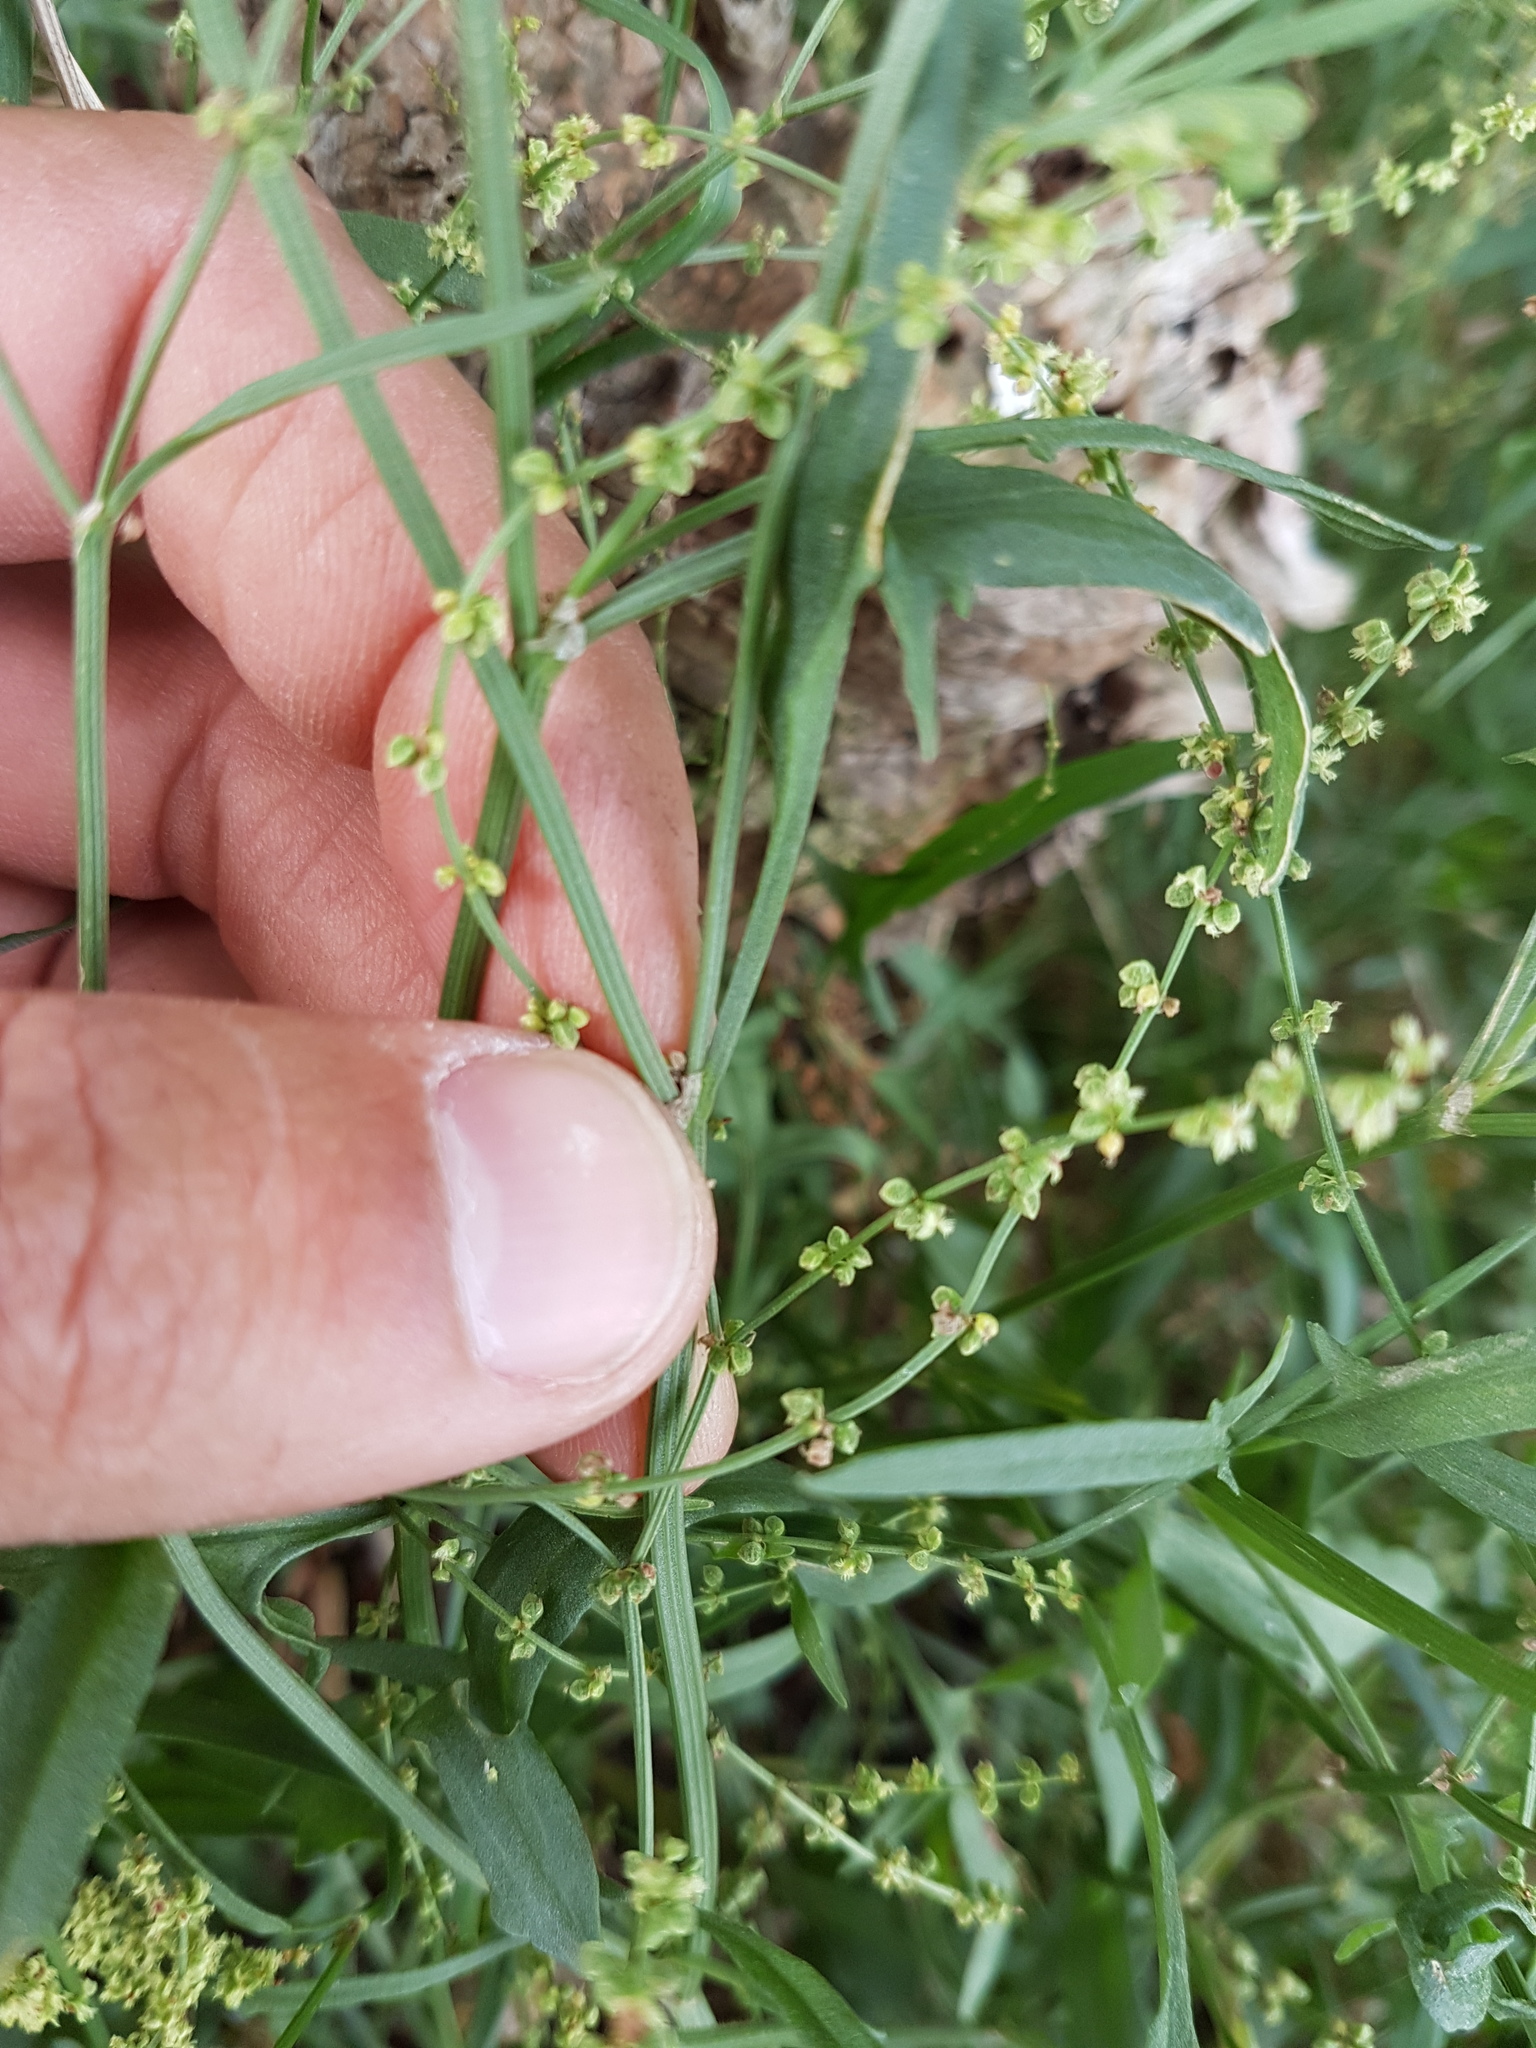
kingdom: Plantae
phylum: Tracheophyta
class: Magnoliopsida
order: Caryophyllales
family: Polygonaceae
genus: Rumex
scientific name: Rumex acetosella
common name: Common sheep sorrel
